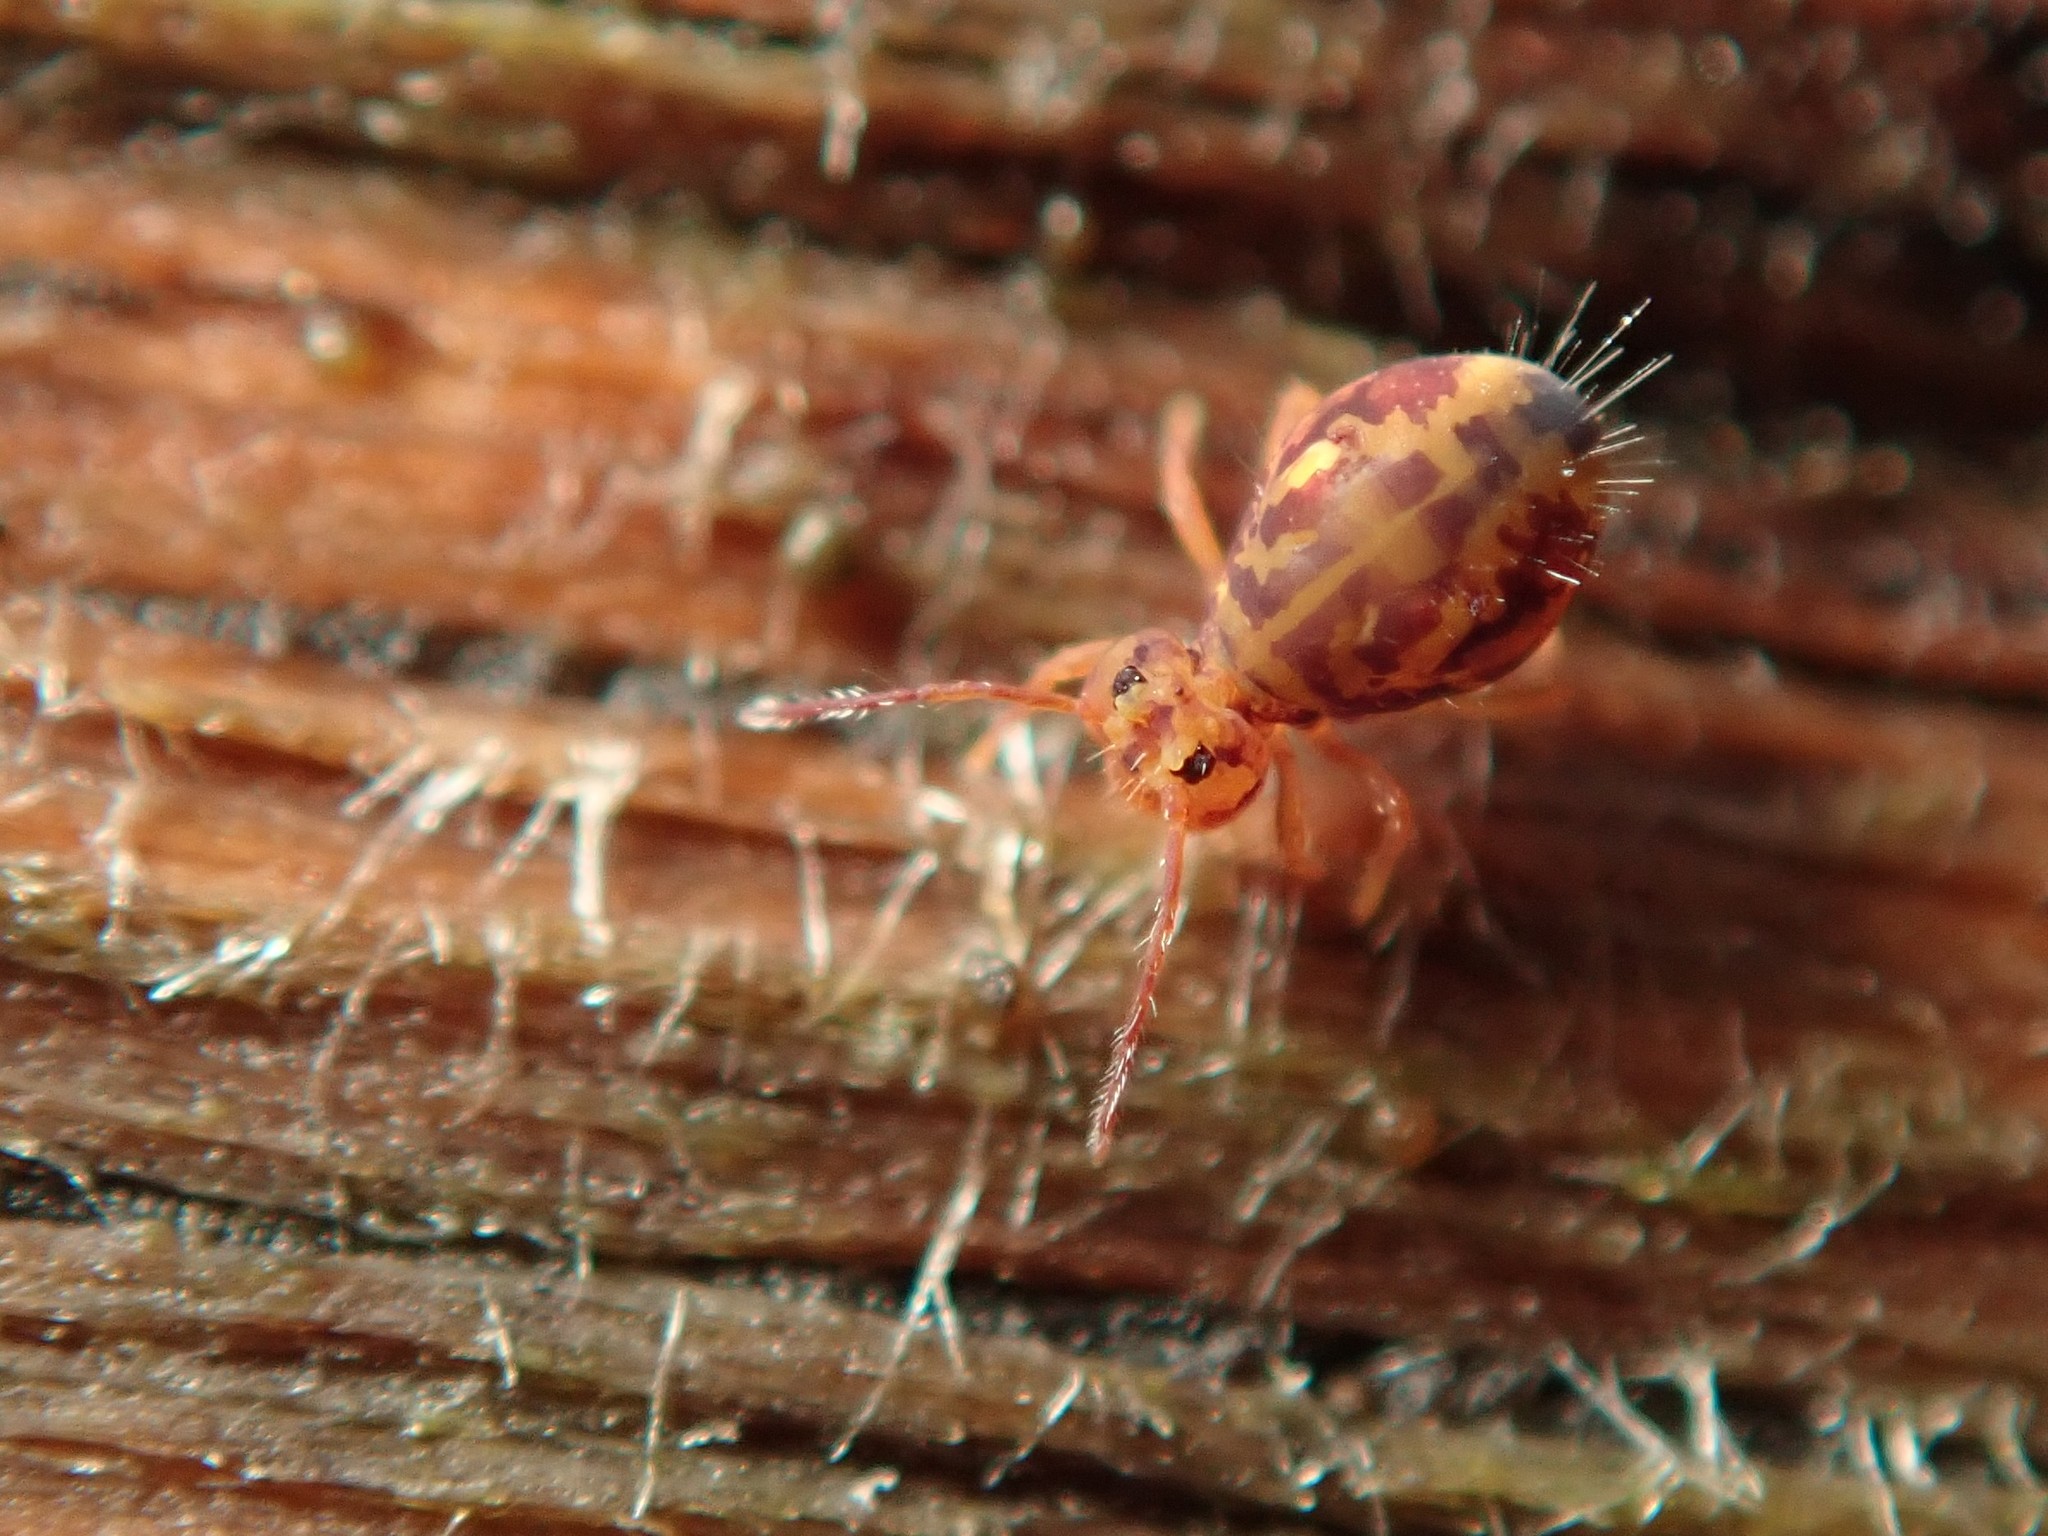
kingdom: Animalia
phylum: Arthropoda
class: Collembola
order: Symphypleona
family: Dicyrtomidae
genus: Dicyrtomina
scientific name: Dicyrtomina ornata
